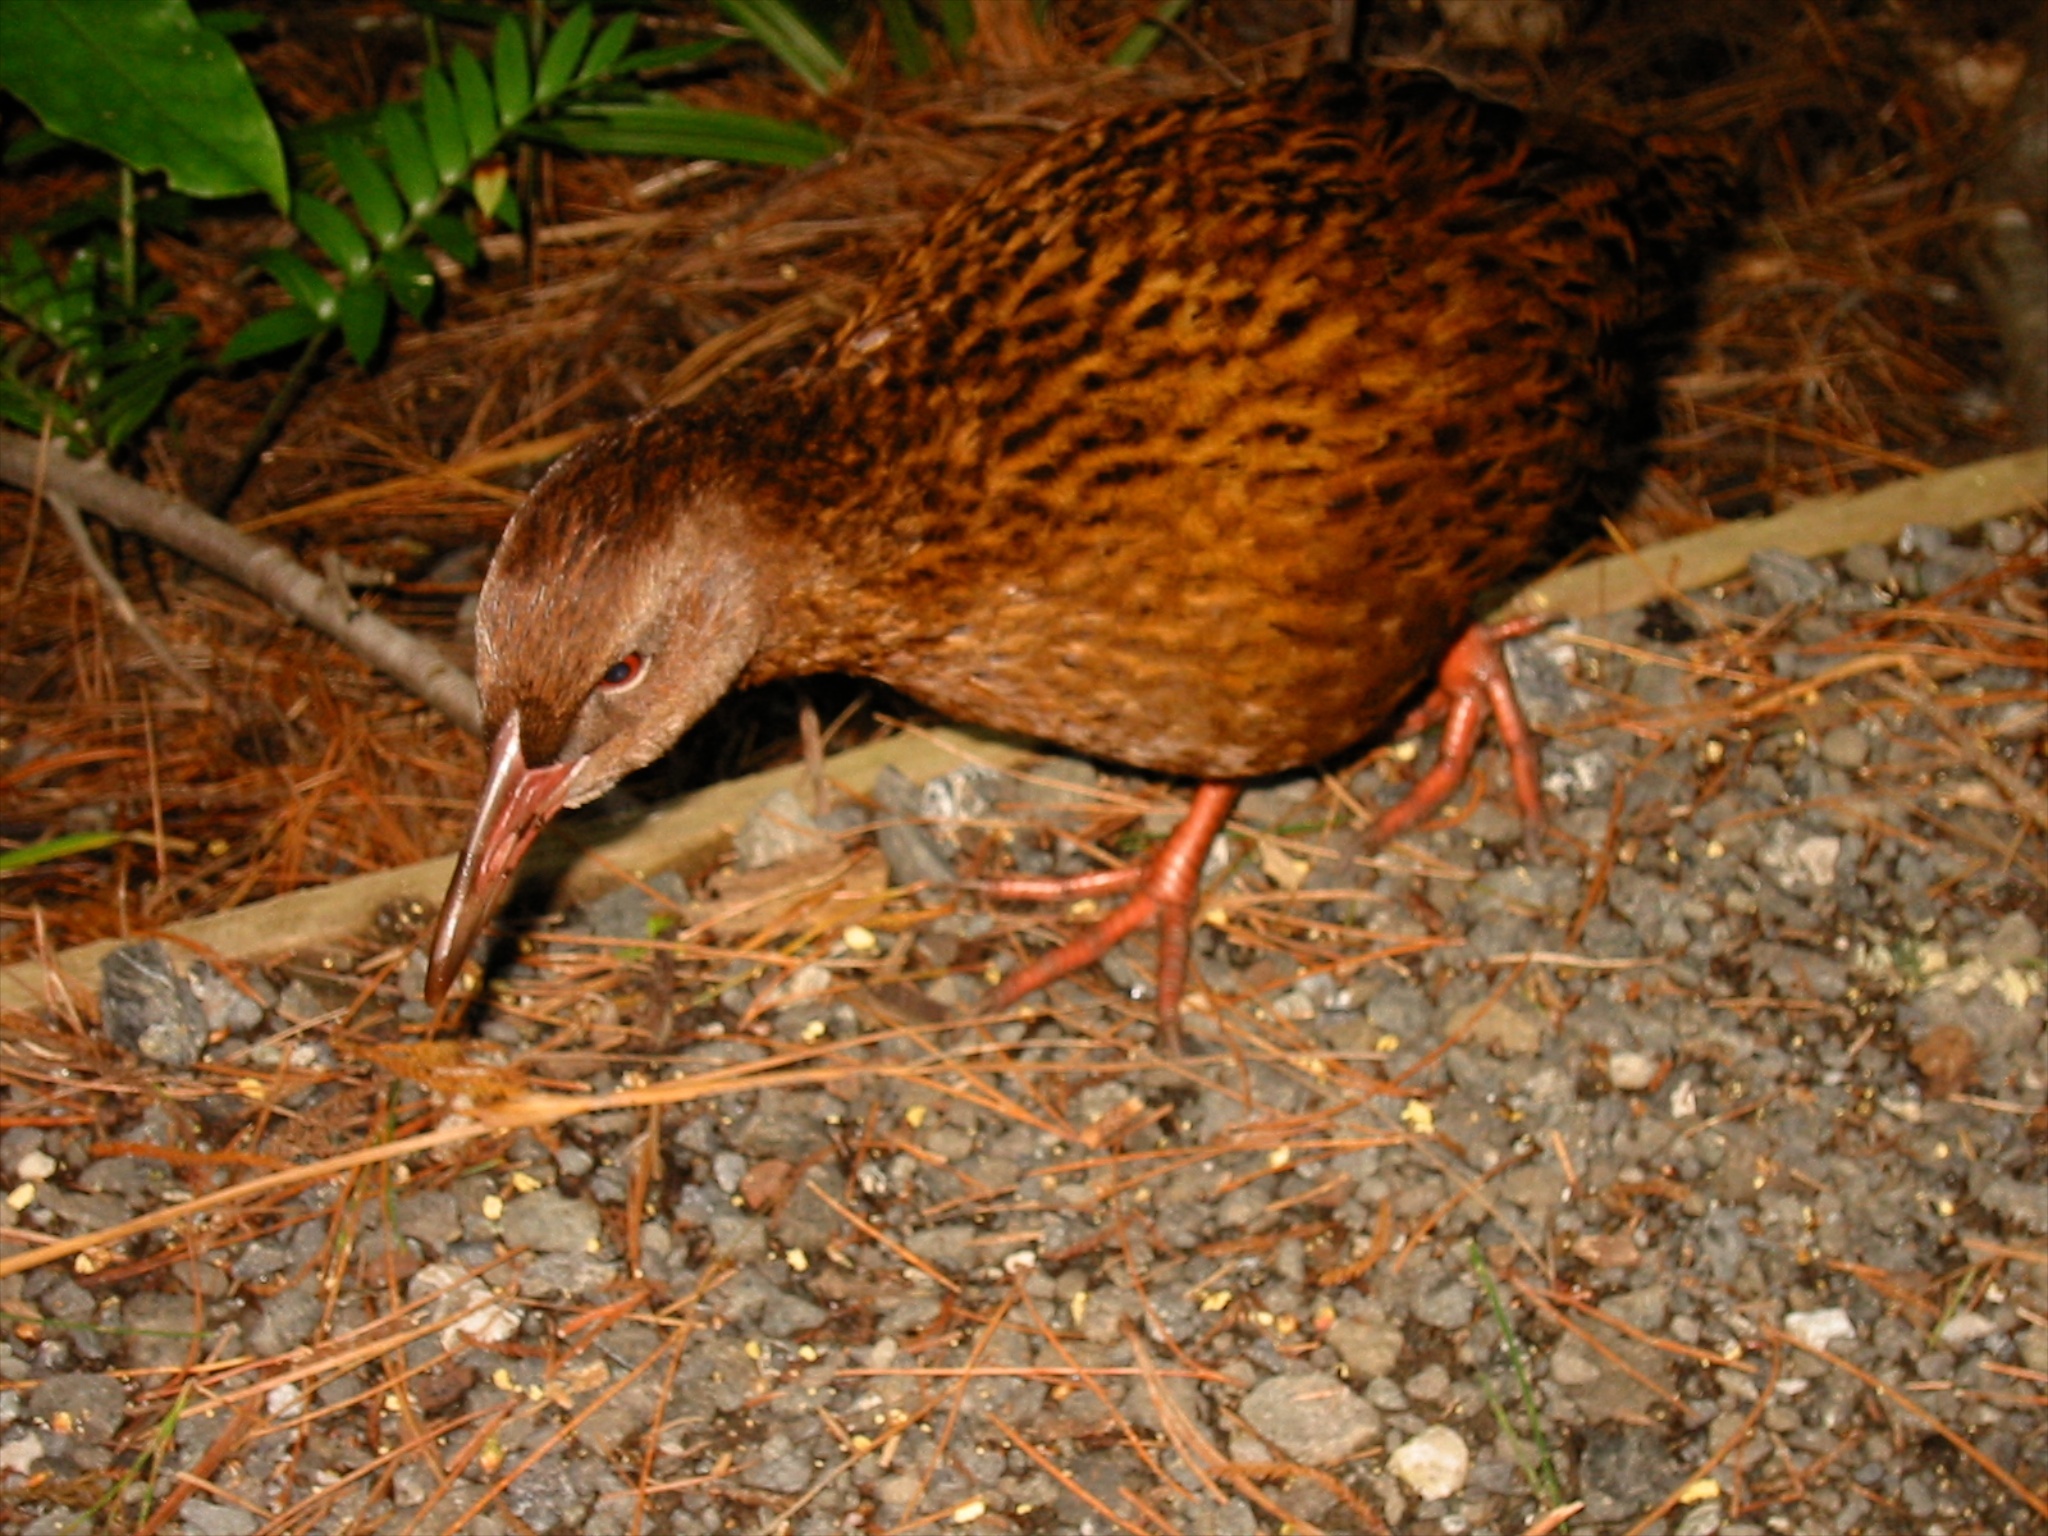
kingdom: Animalia
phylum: Chordata
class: Aves
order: Gruiformes
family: Rallidae
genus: Gallirallus
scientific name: Gallirallus australis
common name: Weka
